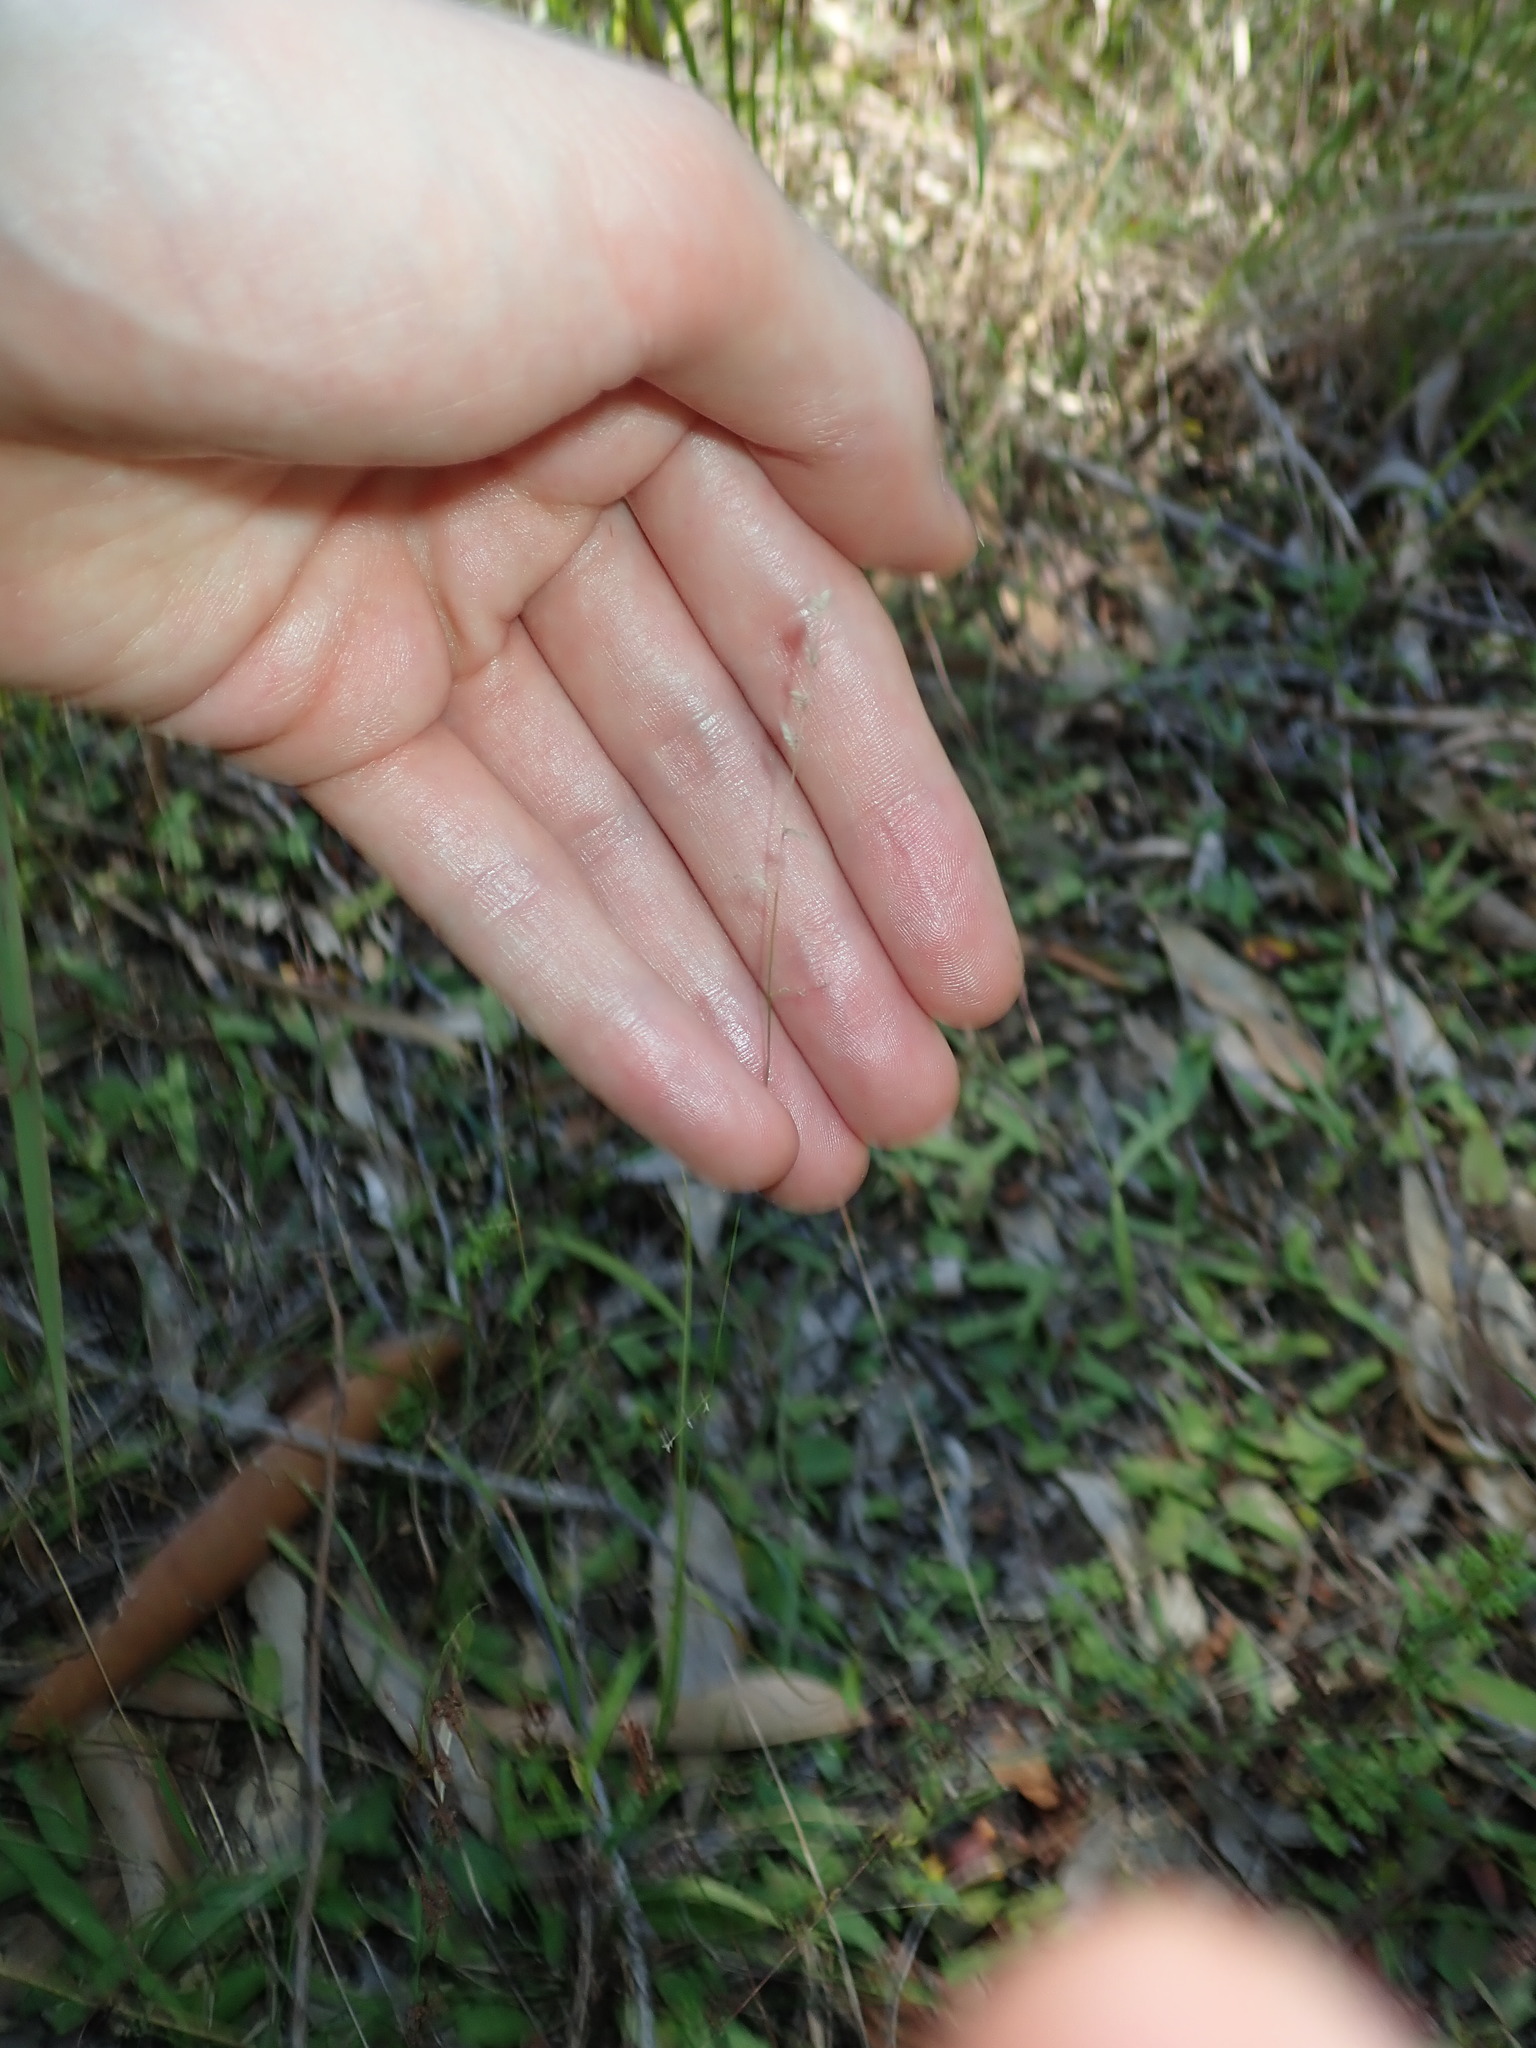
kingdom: Plantae
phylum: Tracheophyta
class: Liliopsida
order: Poales
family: Poaceae
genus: Eragrostis
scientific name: Eragrostis brownii
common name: Lovegrass
